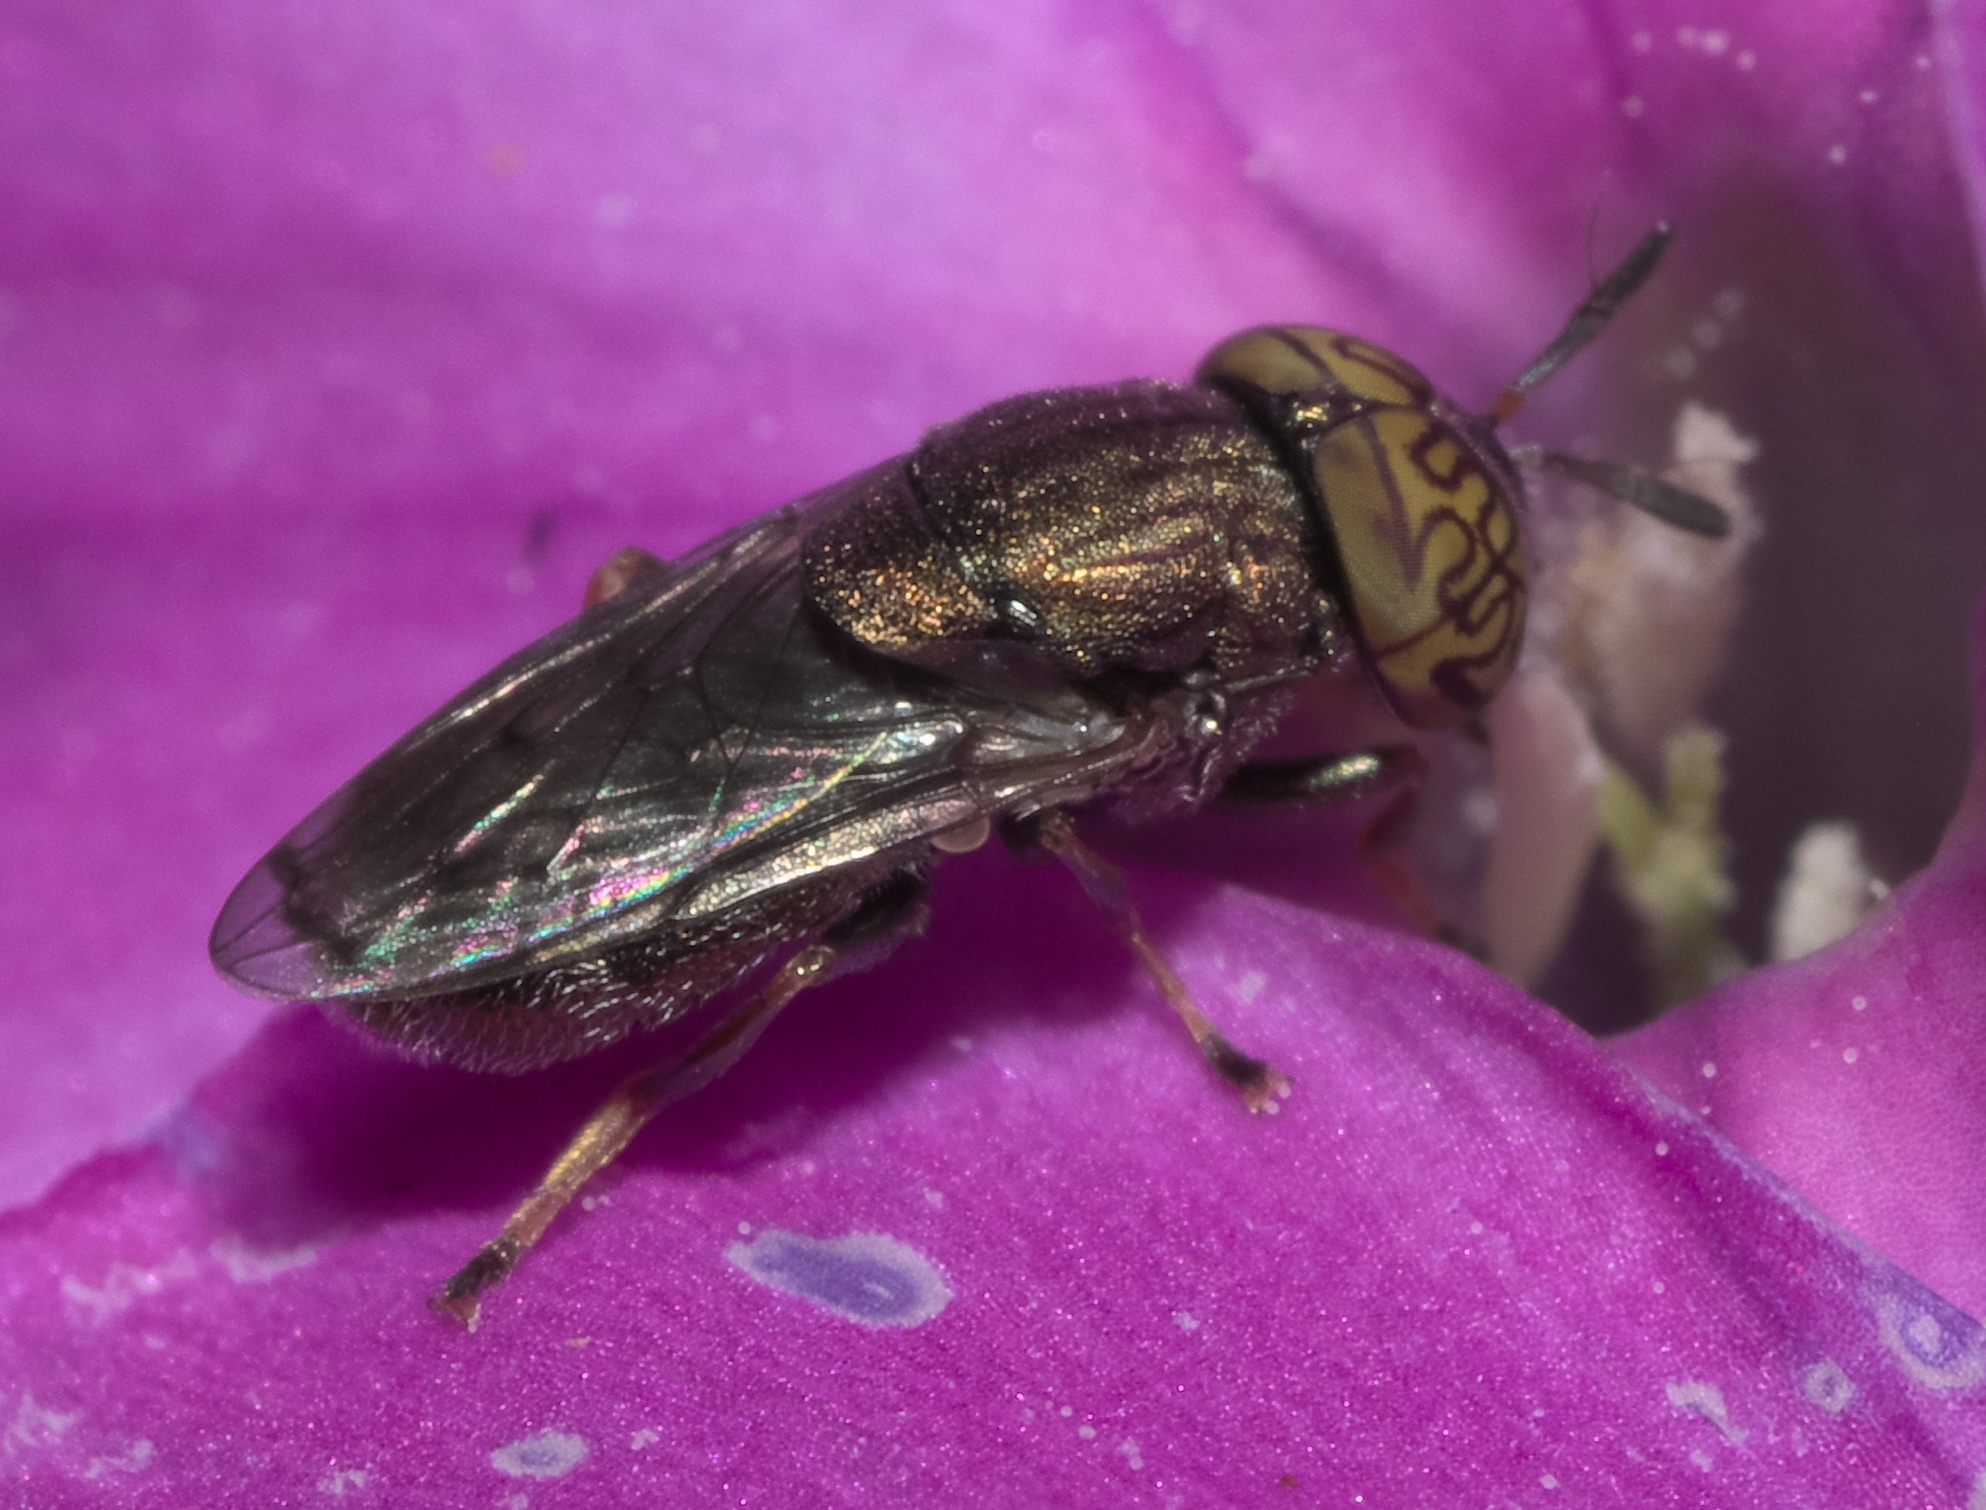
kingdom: Animalia
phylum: Arthropoda
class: Insecta
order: Diptera
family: Syrphidae
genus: Orthonevra
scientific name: Orthonevra nitida
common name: Wavy mucksucker
